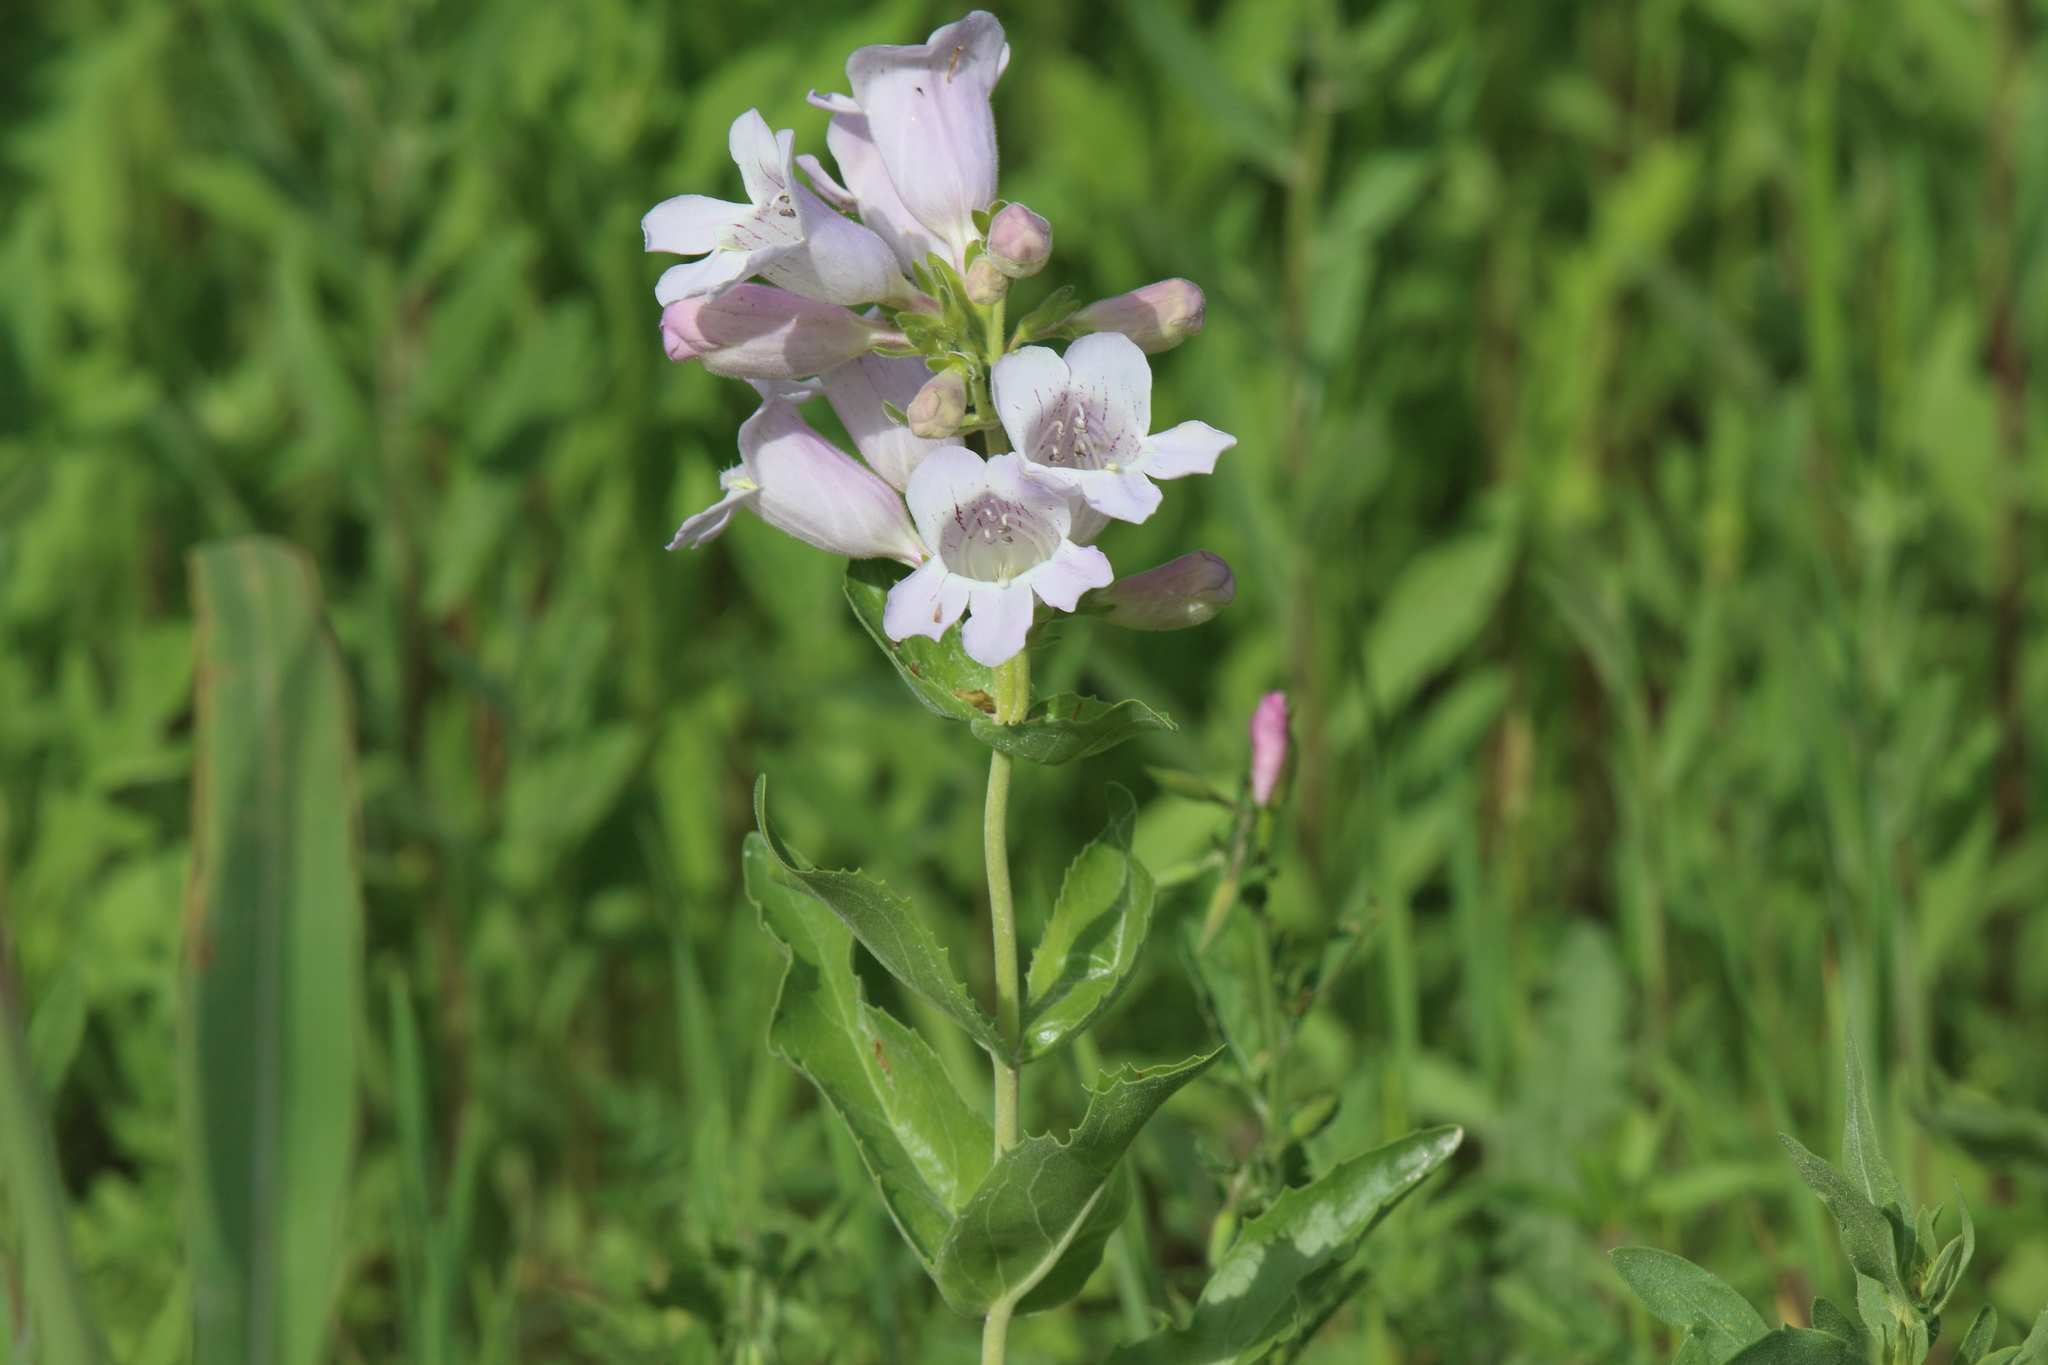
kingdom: Plantae
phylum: Tracheophyta
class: Magnoliopsida
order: Lamiales
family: Plantaginaceae
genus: Penstemon
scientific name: Penstemon cobaea
